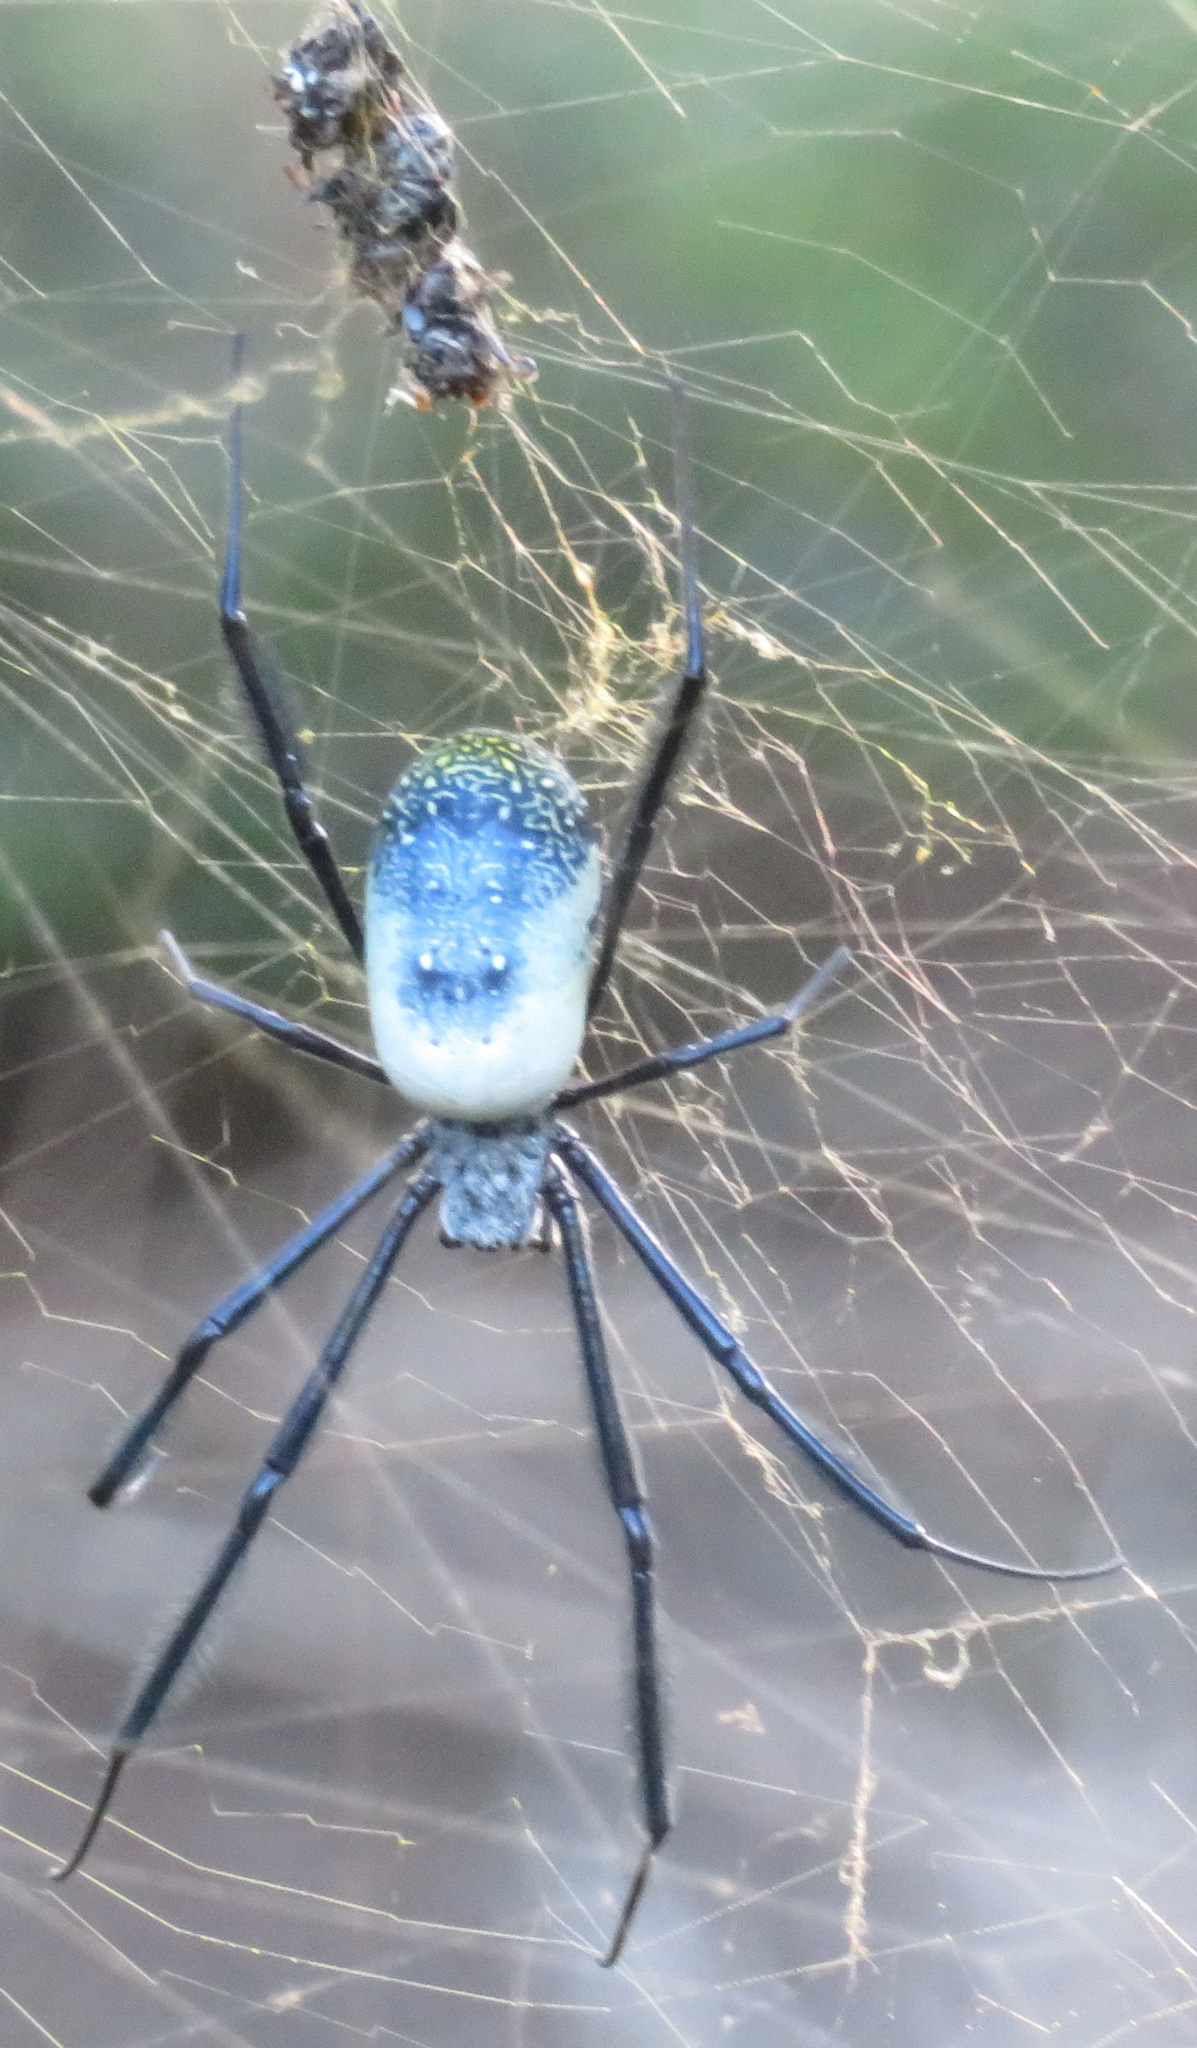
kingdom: Animalia
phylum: Arthropoda
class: Arachnida
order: Araneae
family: Araneidae
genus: Trichonephila
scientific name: Trichonephila fenestrata
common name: Hairy golden orb weaver
